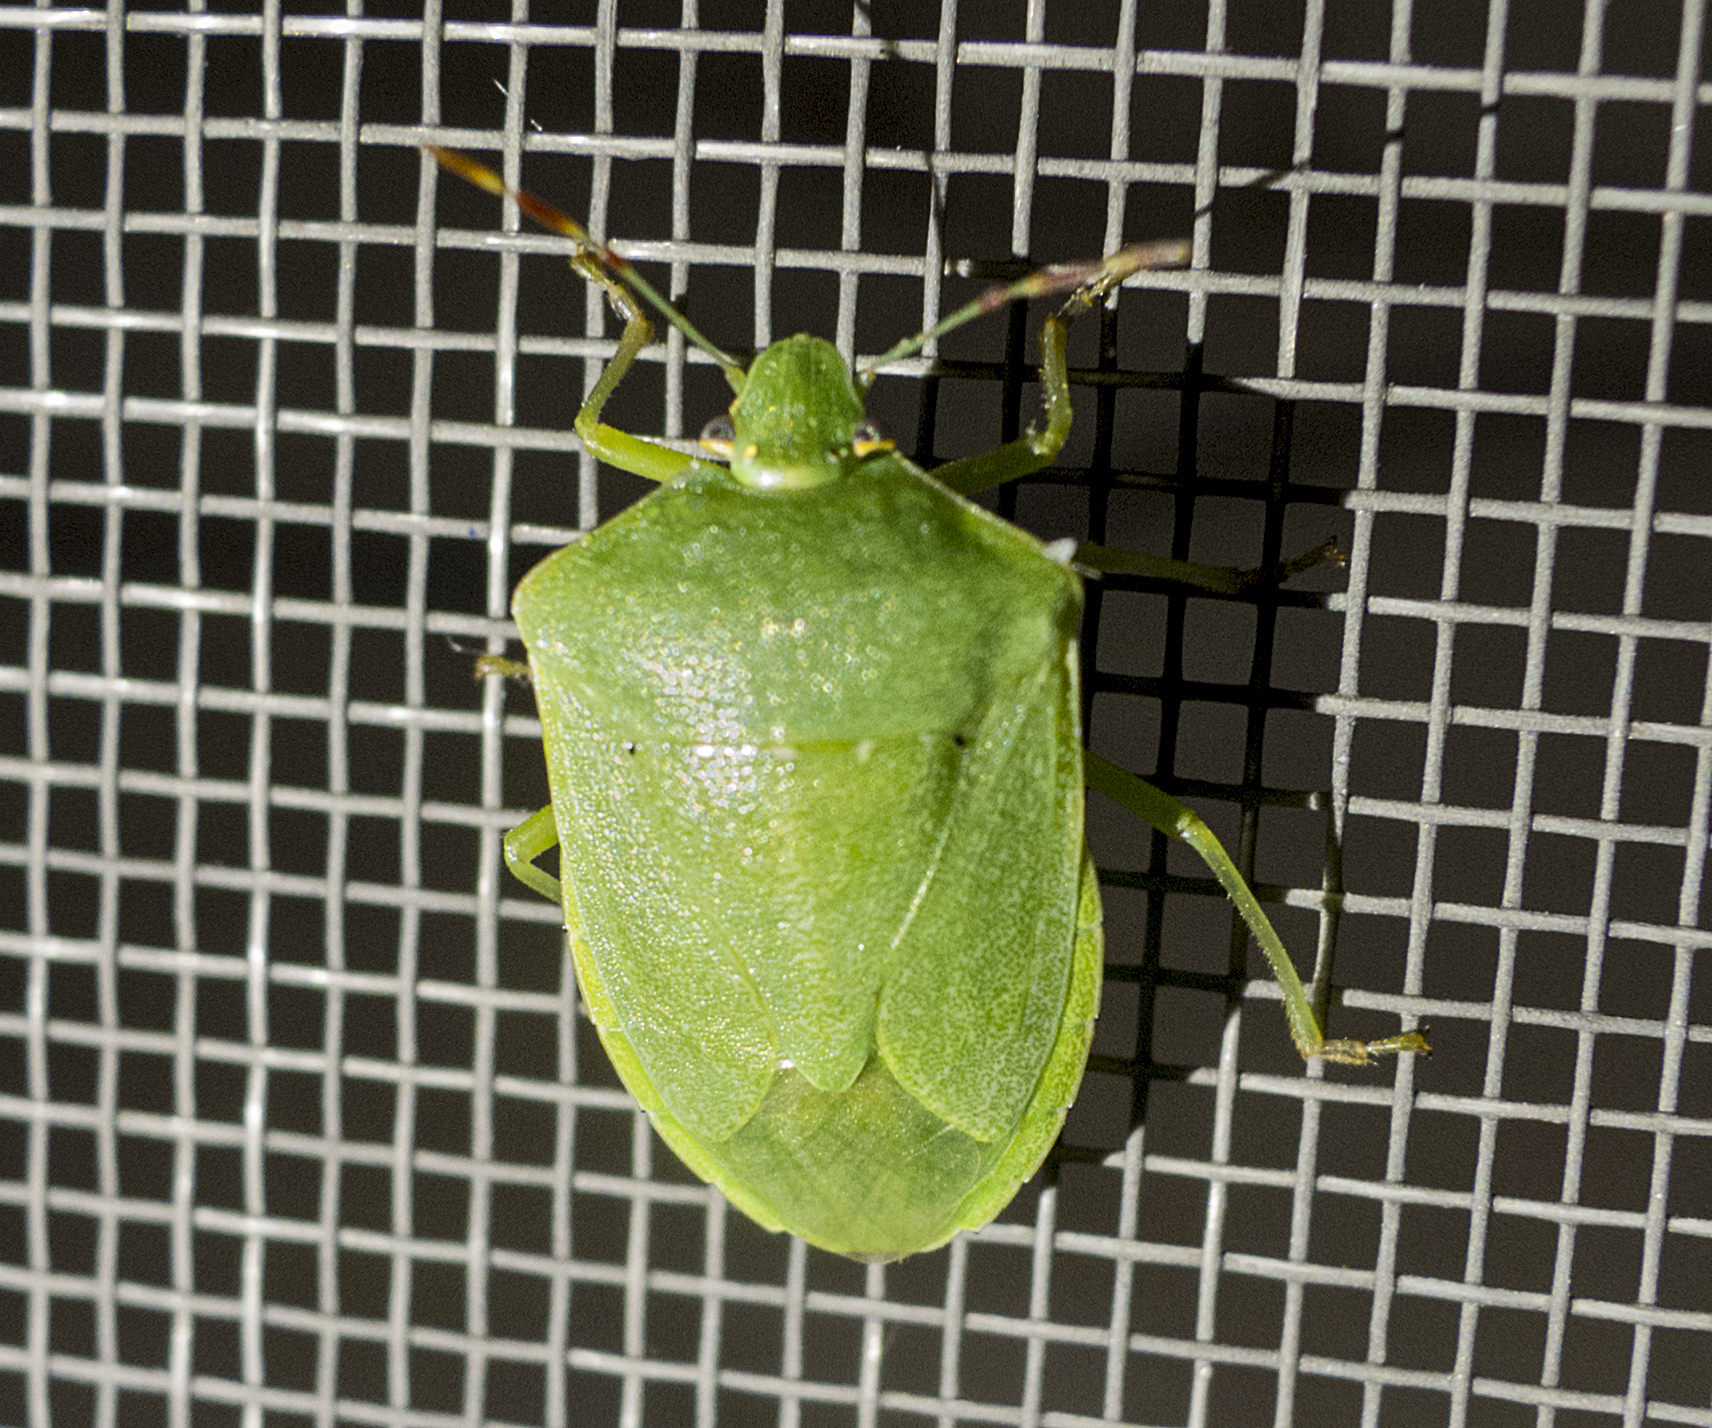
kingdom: Animalia
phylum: Arthropoda
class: Insecta
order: Hemiptera
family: Pentatomidae
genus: Nezara
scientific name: Nezara viridula
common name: Southern green stink bug
